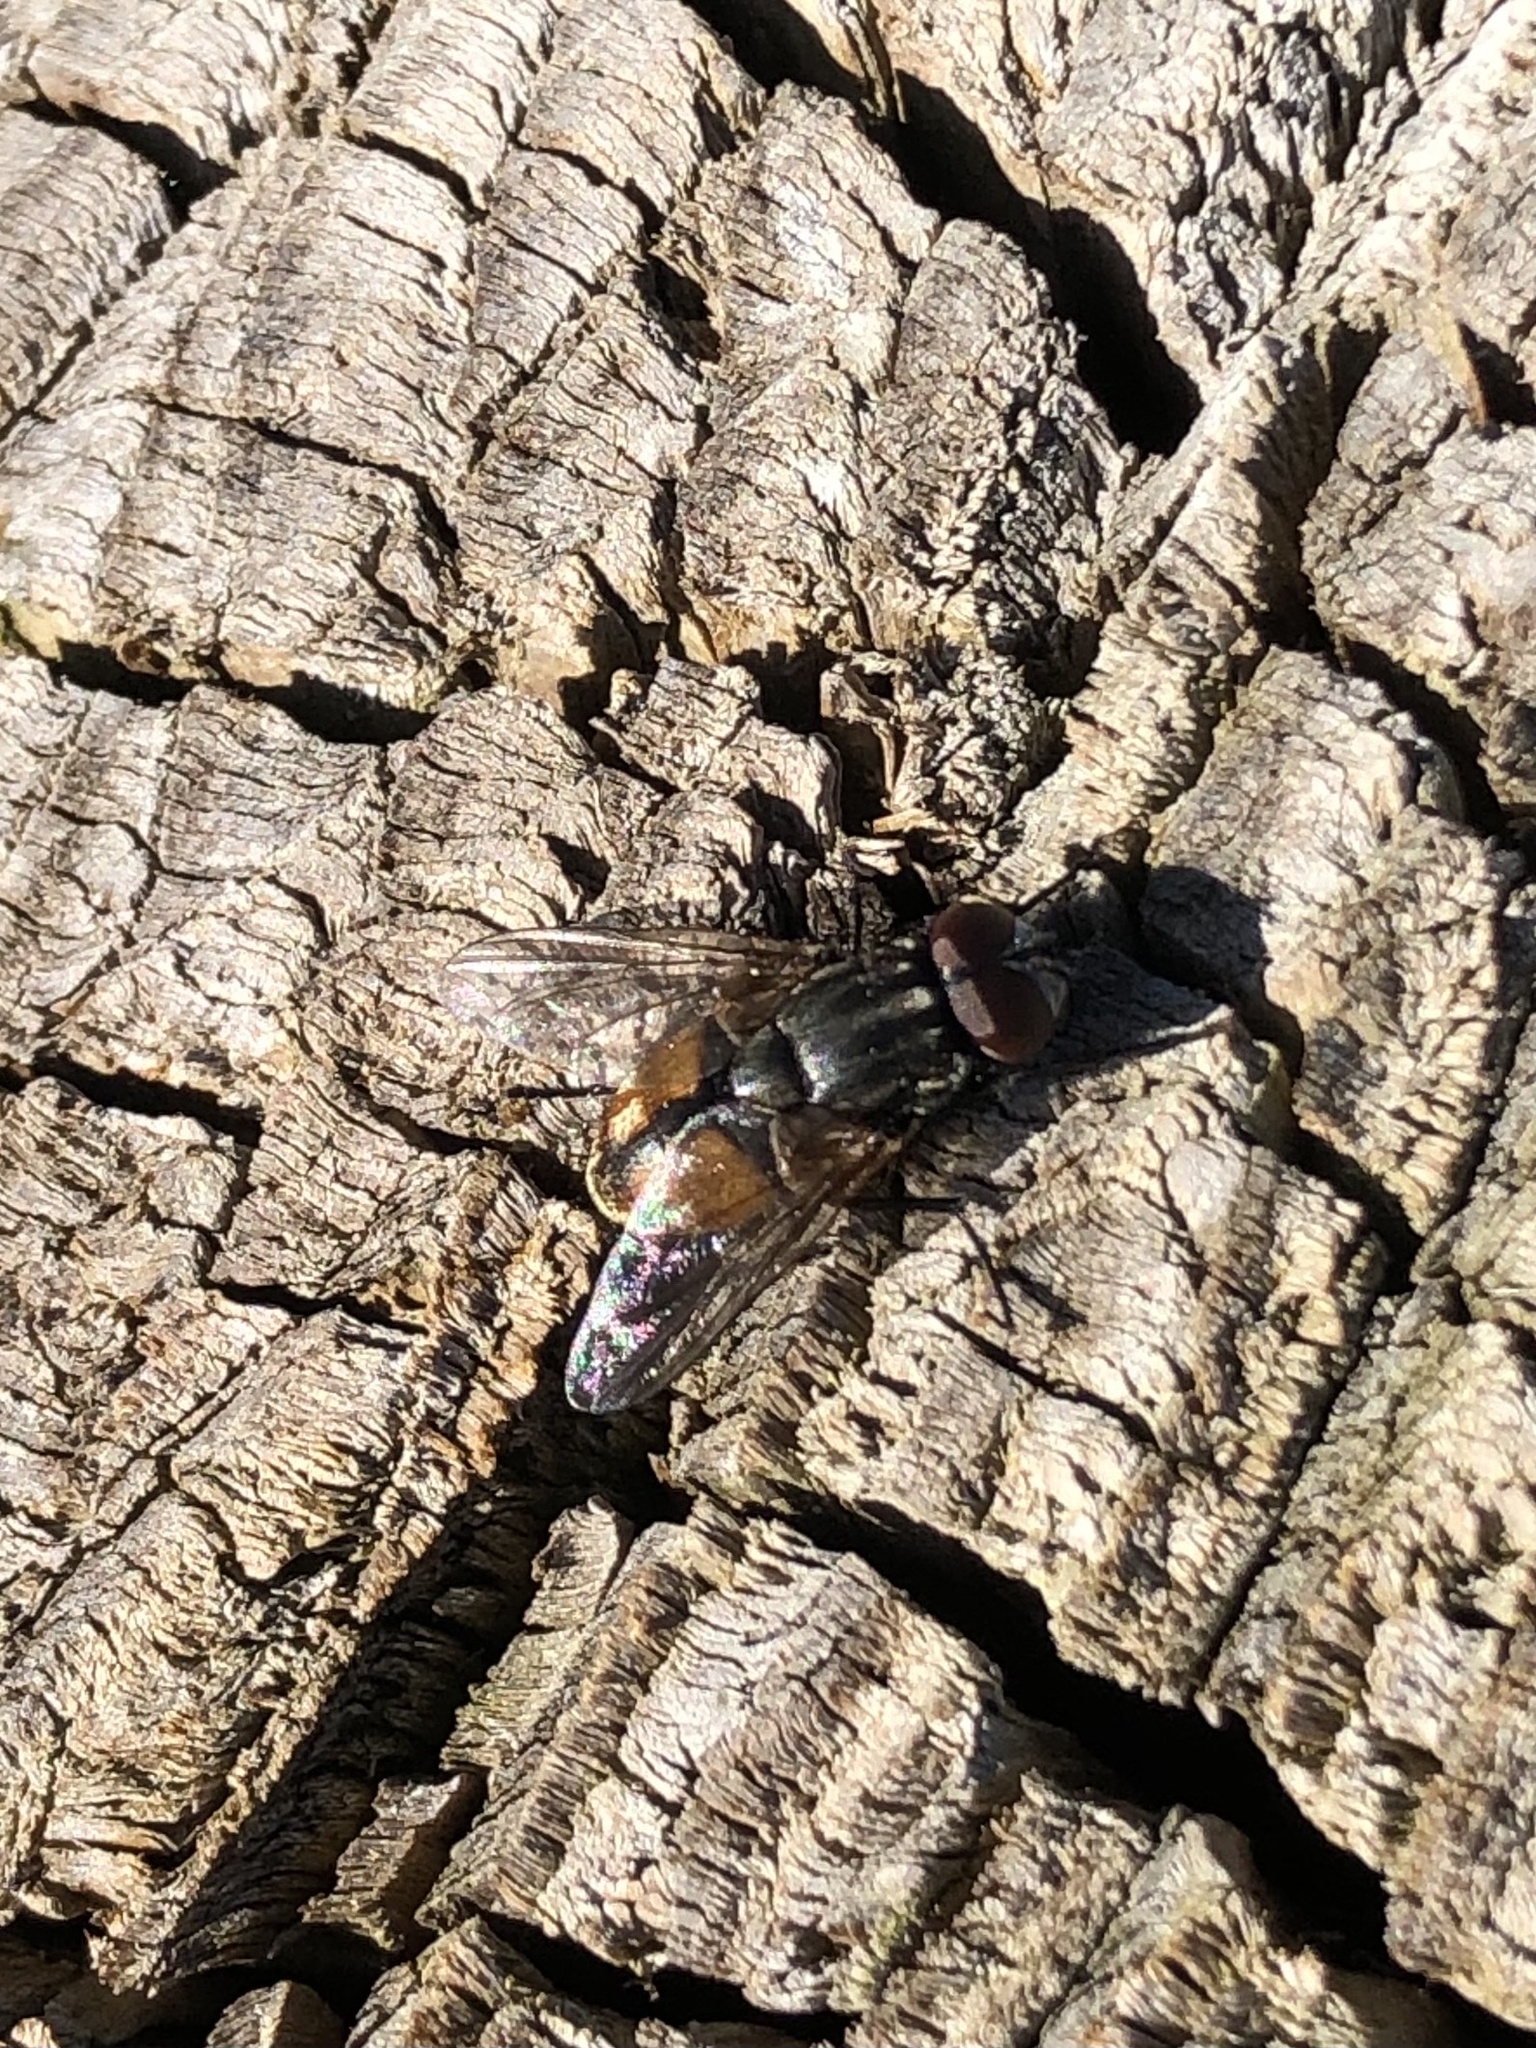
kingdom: Animalia
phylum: Arthropoda
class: Insecta
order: Diptera
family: Muscidae
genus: Musca
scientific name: Musca autumnalis
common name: Face fly
